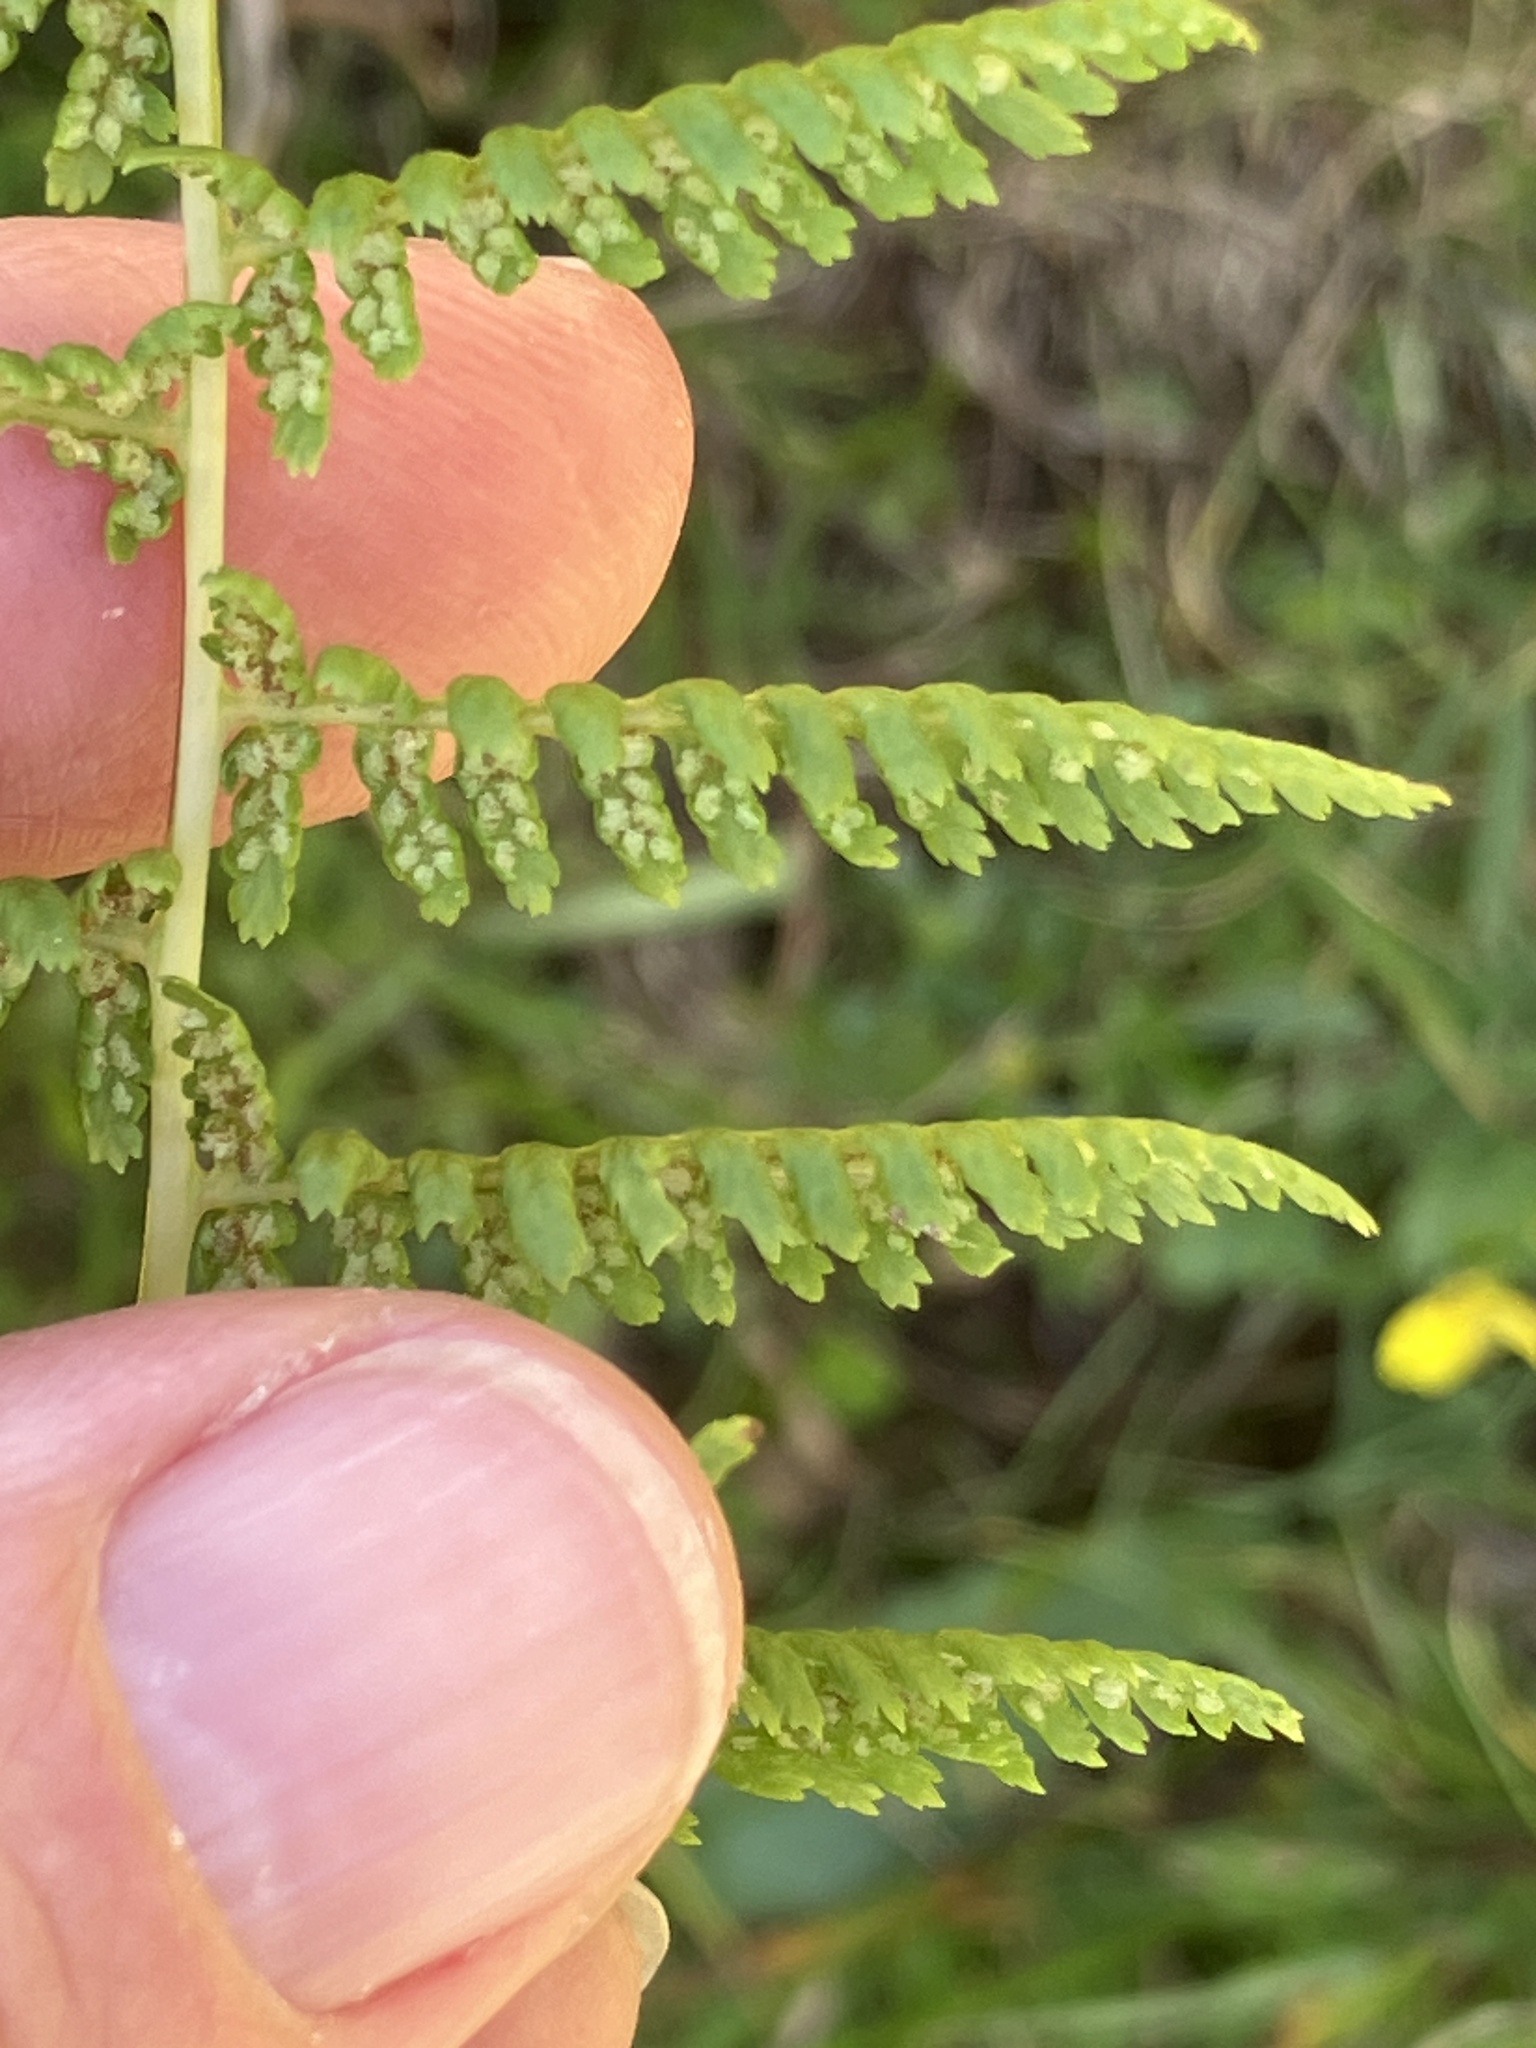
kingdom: Plantae
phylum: Tracheophyta
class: Polypodiopsida
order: Polypodiales
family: Athyriaceae
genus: Athyrium
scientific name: Athyrium filix-femina
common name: Lady fern
